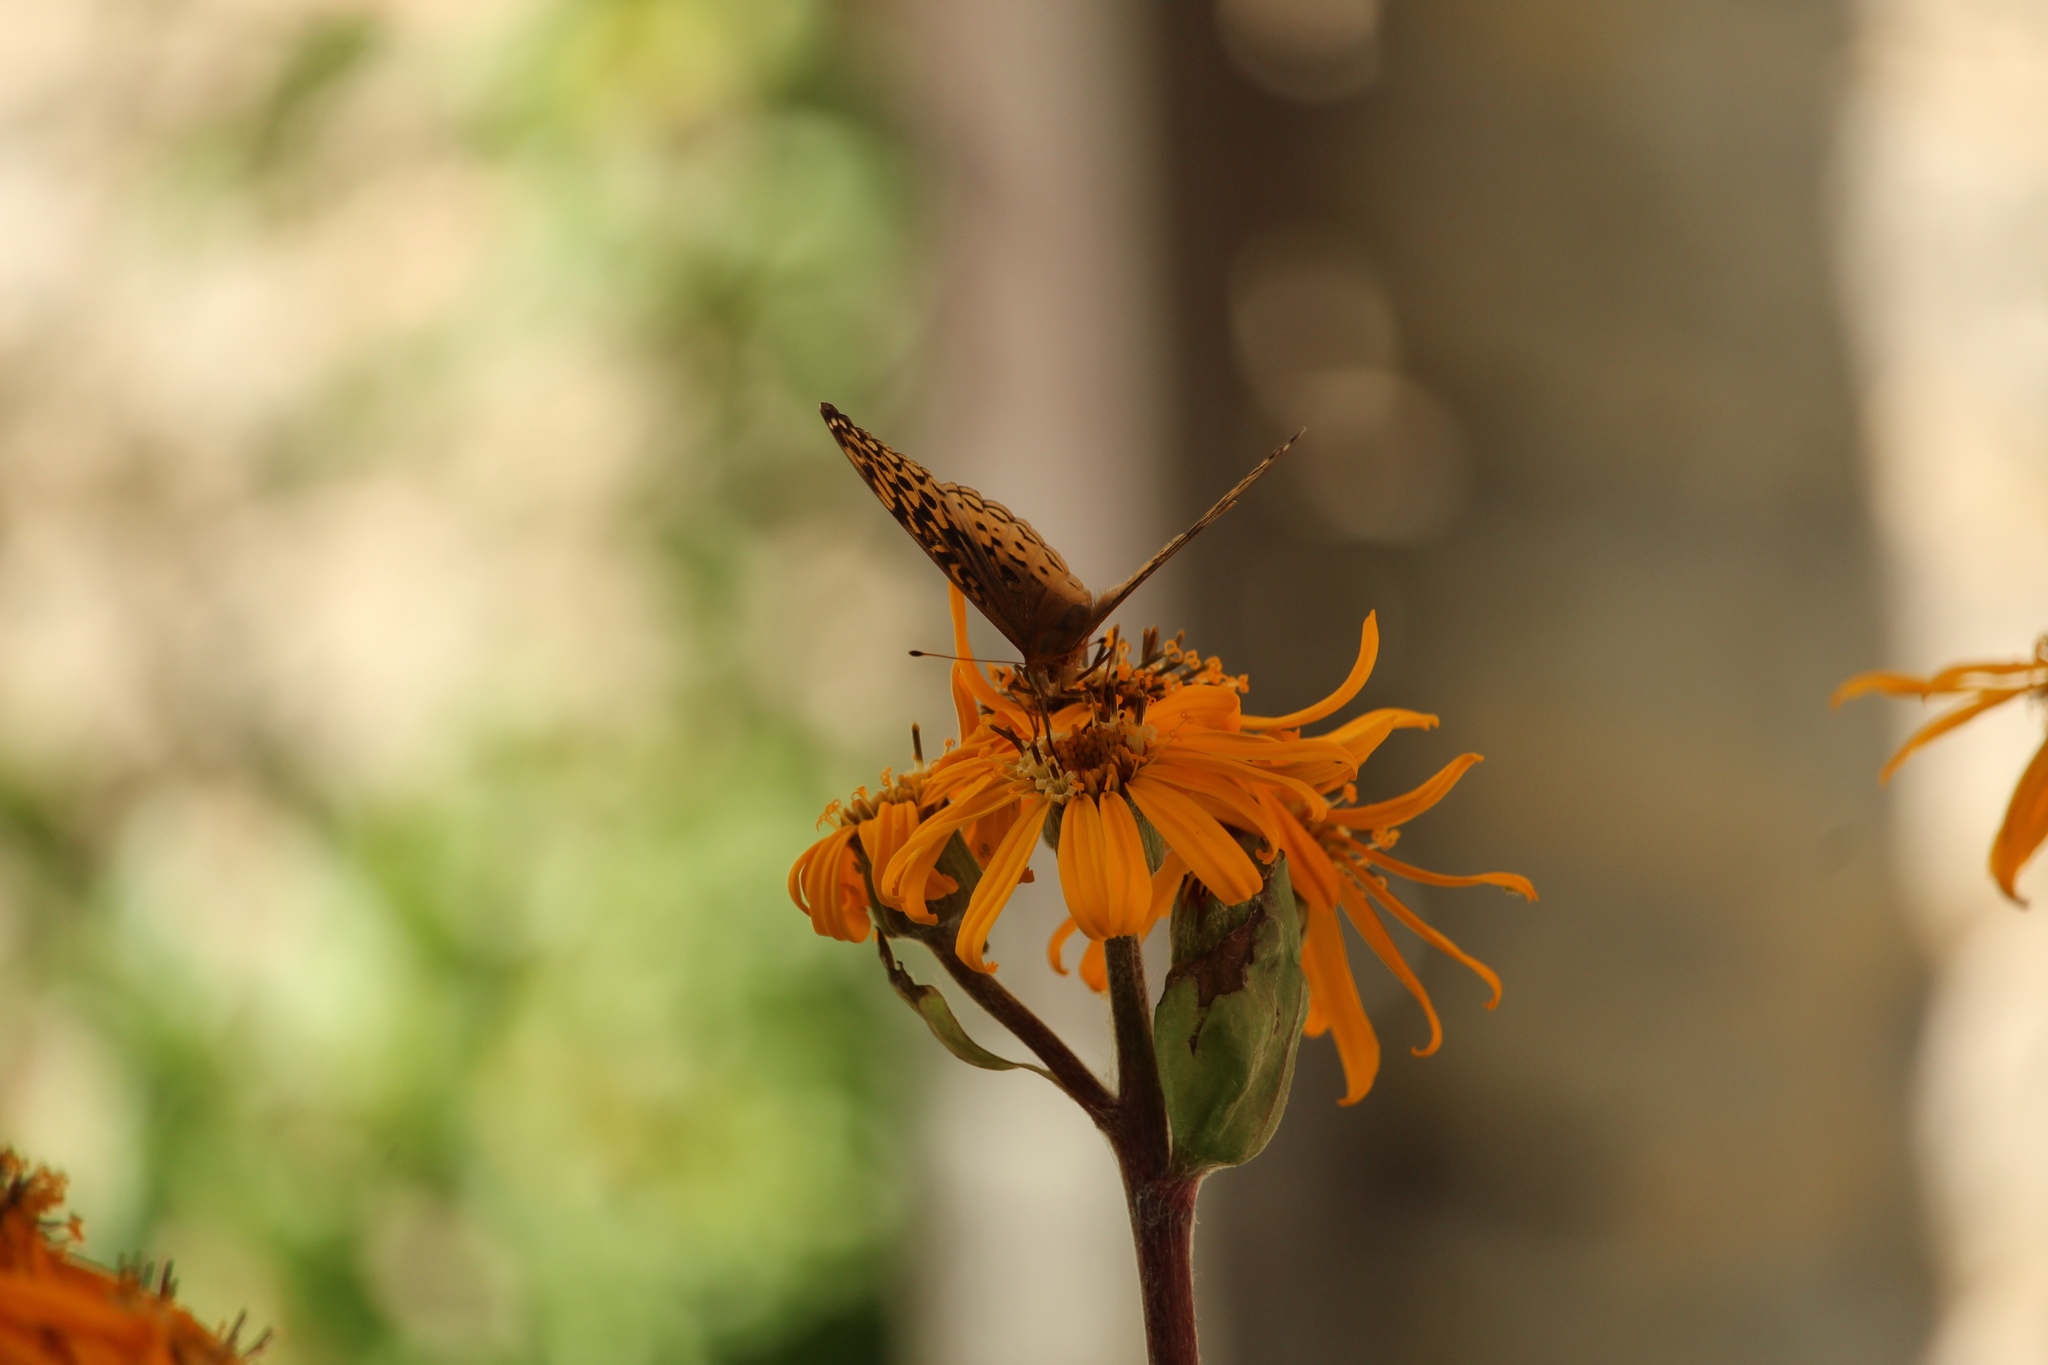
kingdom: Animalia
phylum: Arthropoda
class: Insecta
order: Lepidoptera
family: Nymphalidae
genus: Speyeria
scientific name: Speyeria cybele
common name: Great spangled fritillary
